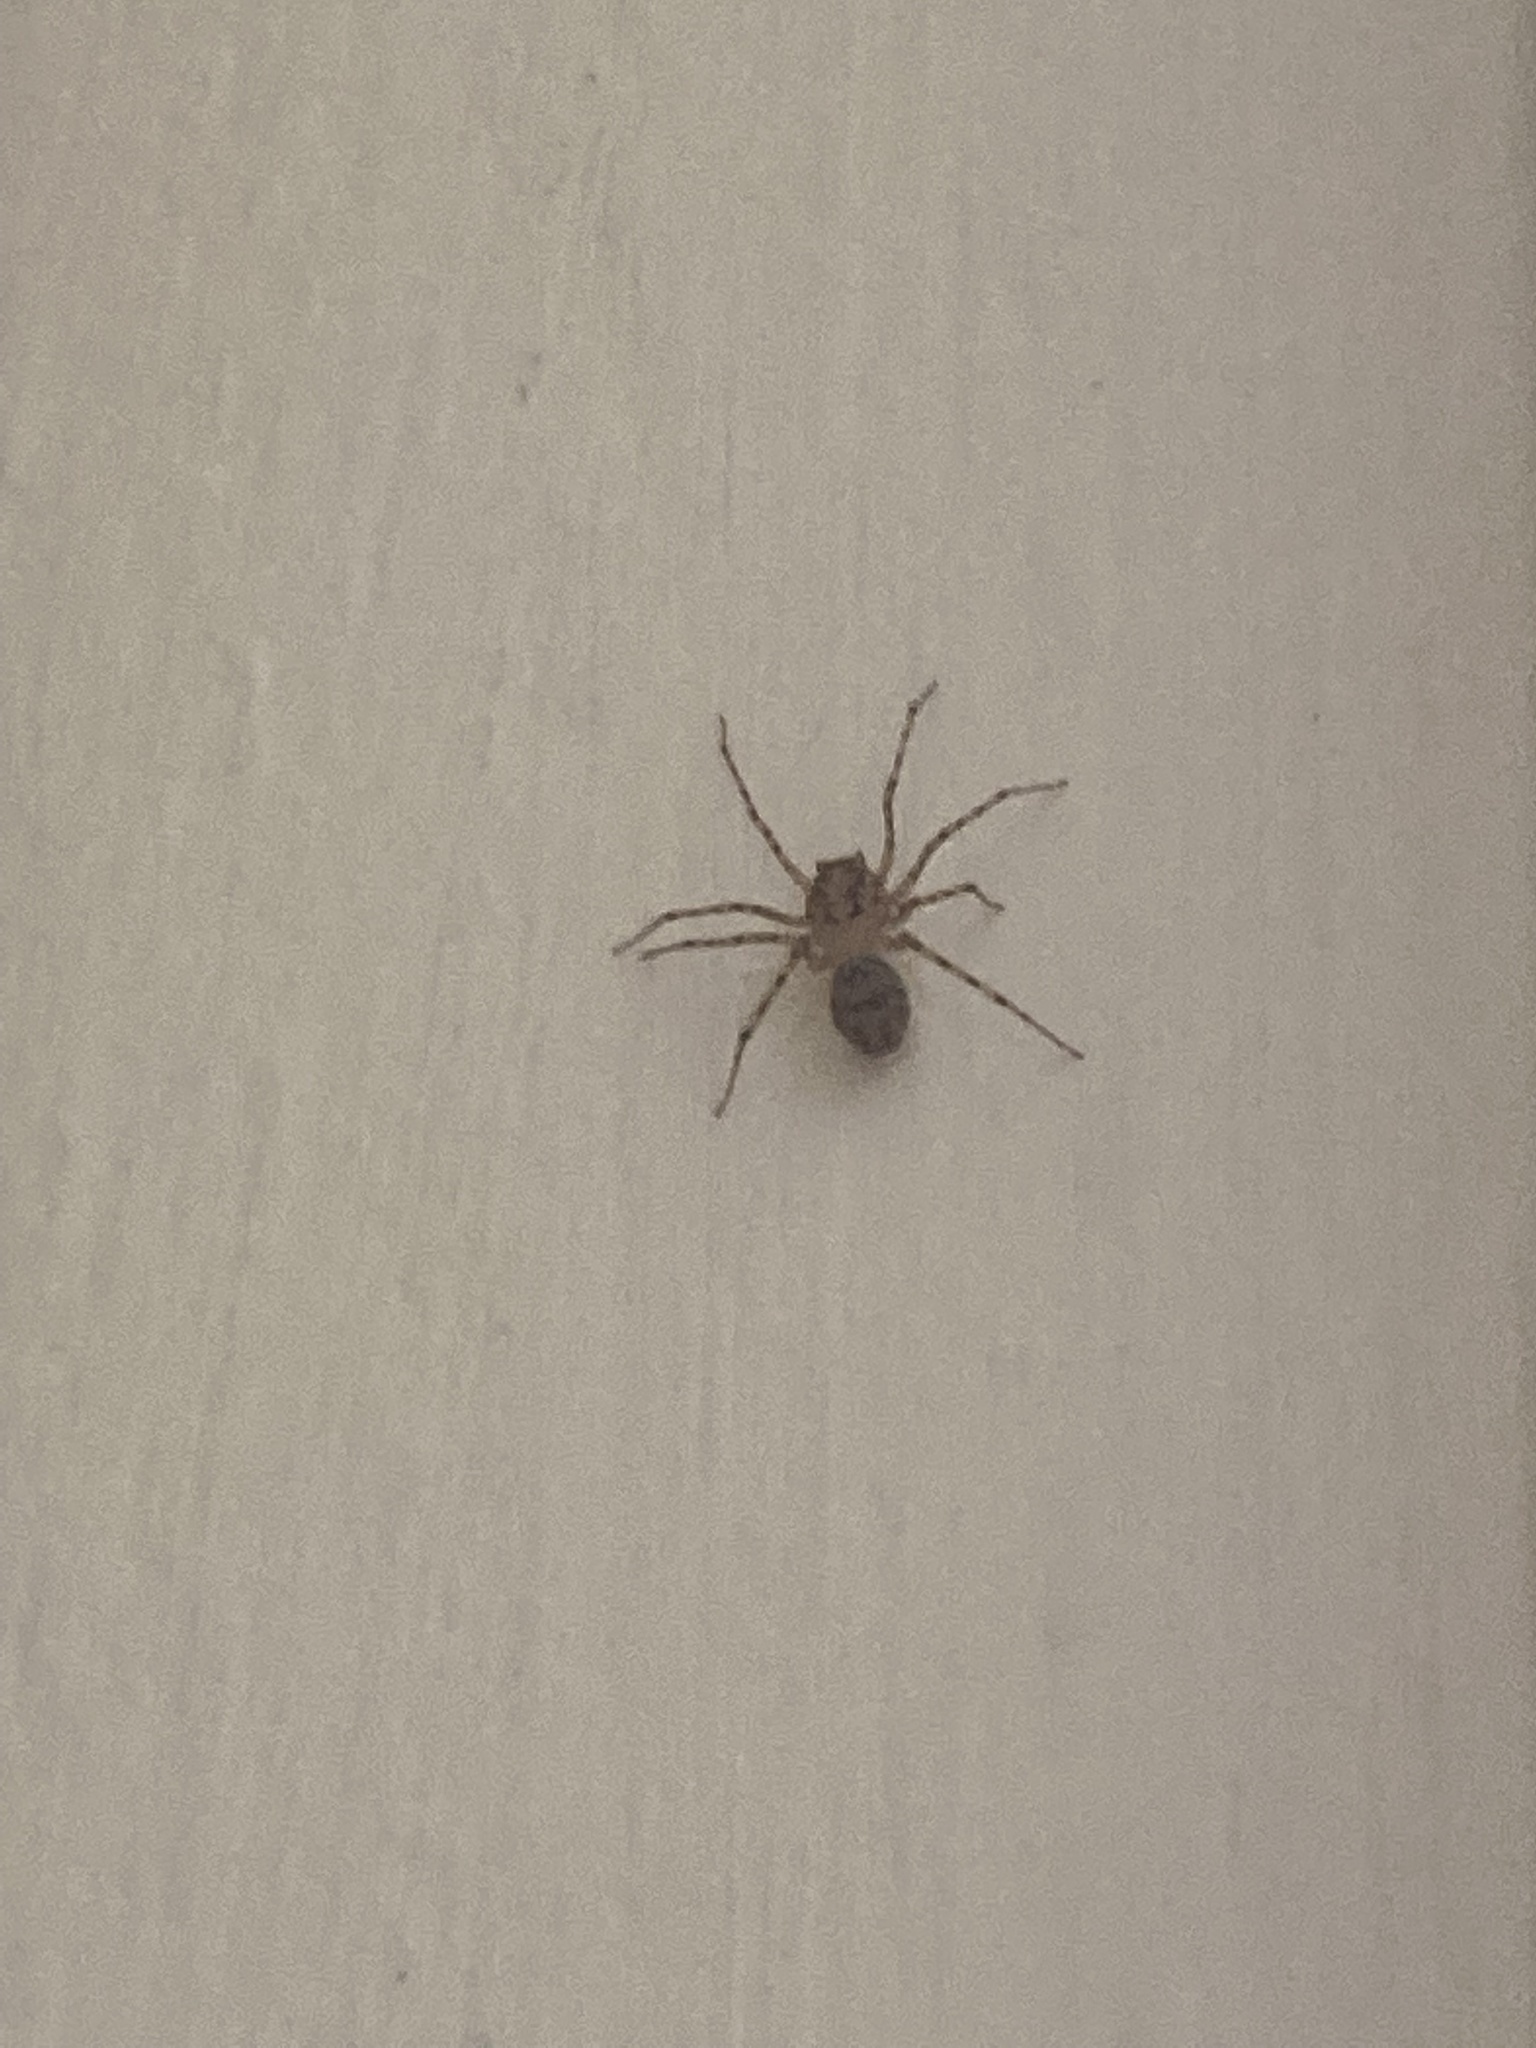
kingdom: Animalia
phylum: Arthropoda
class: Arachnida
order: Araneae
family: Scytodidae
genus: Scytodes
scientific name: Scytodes thoracica
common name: Spitting spider
